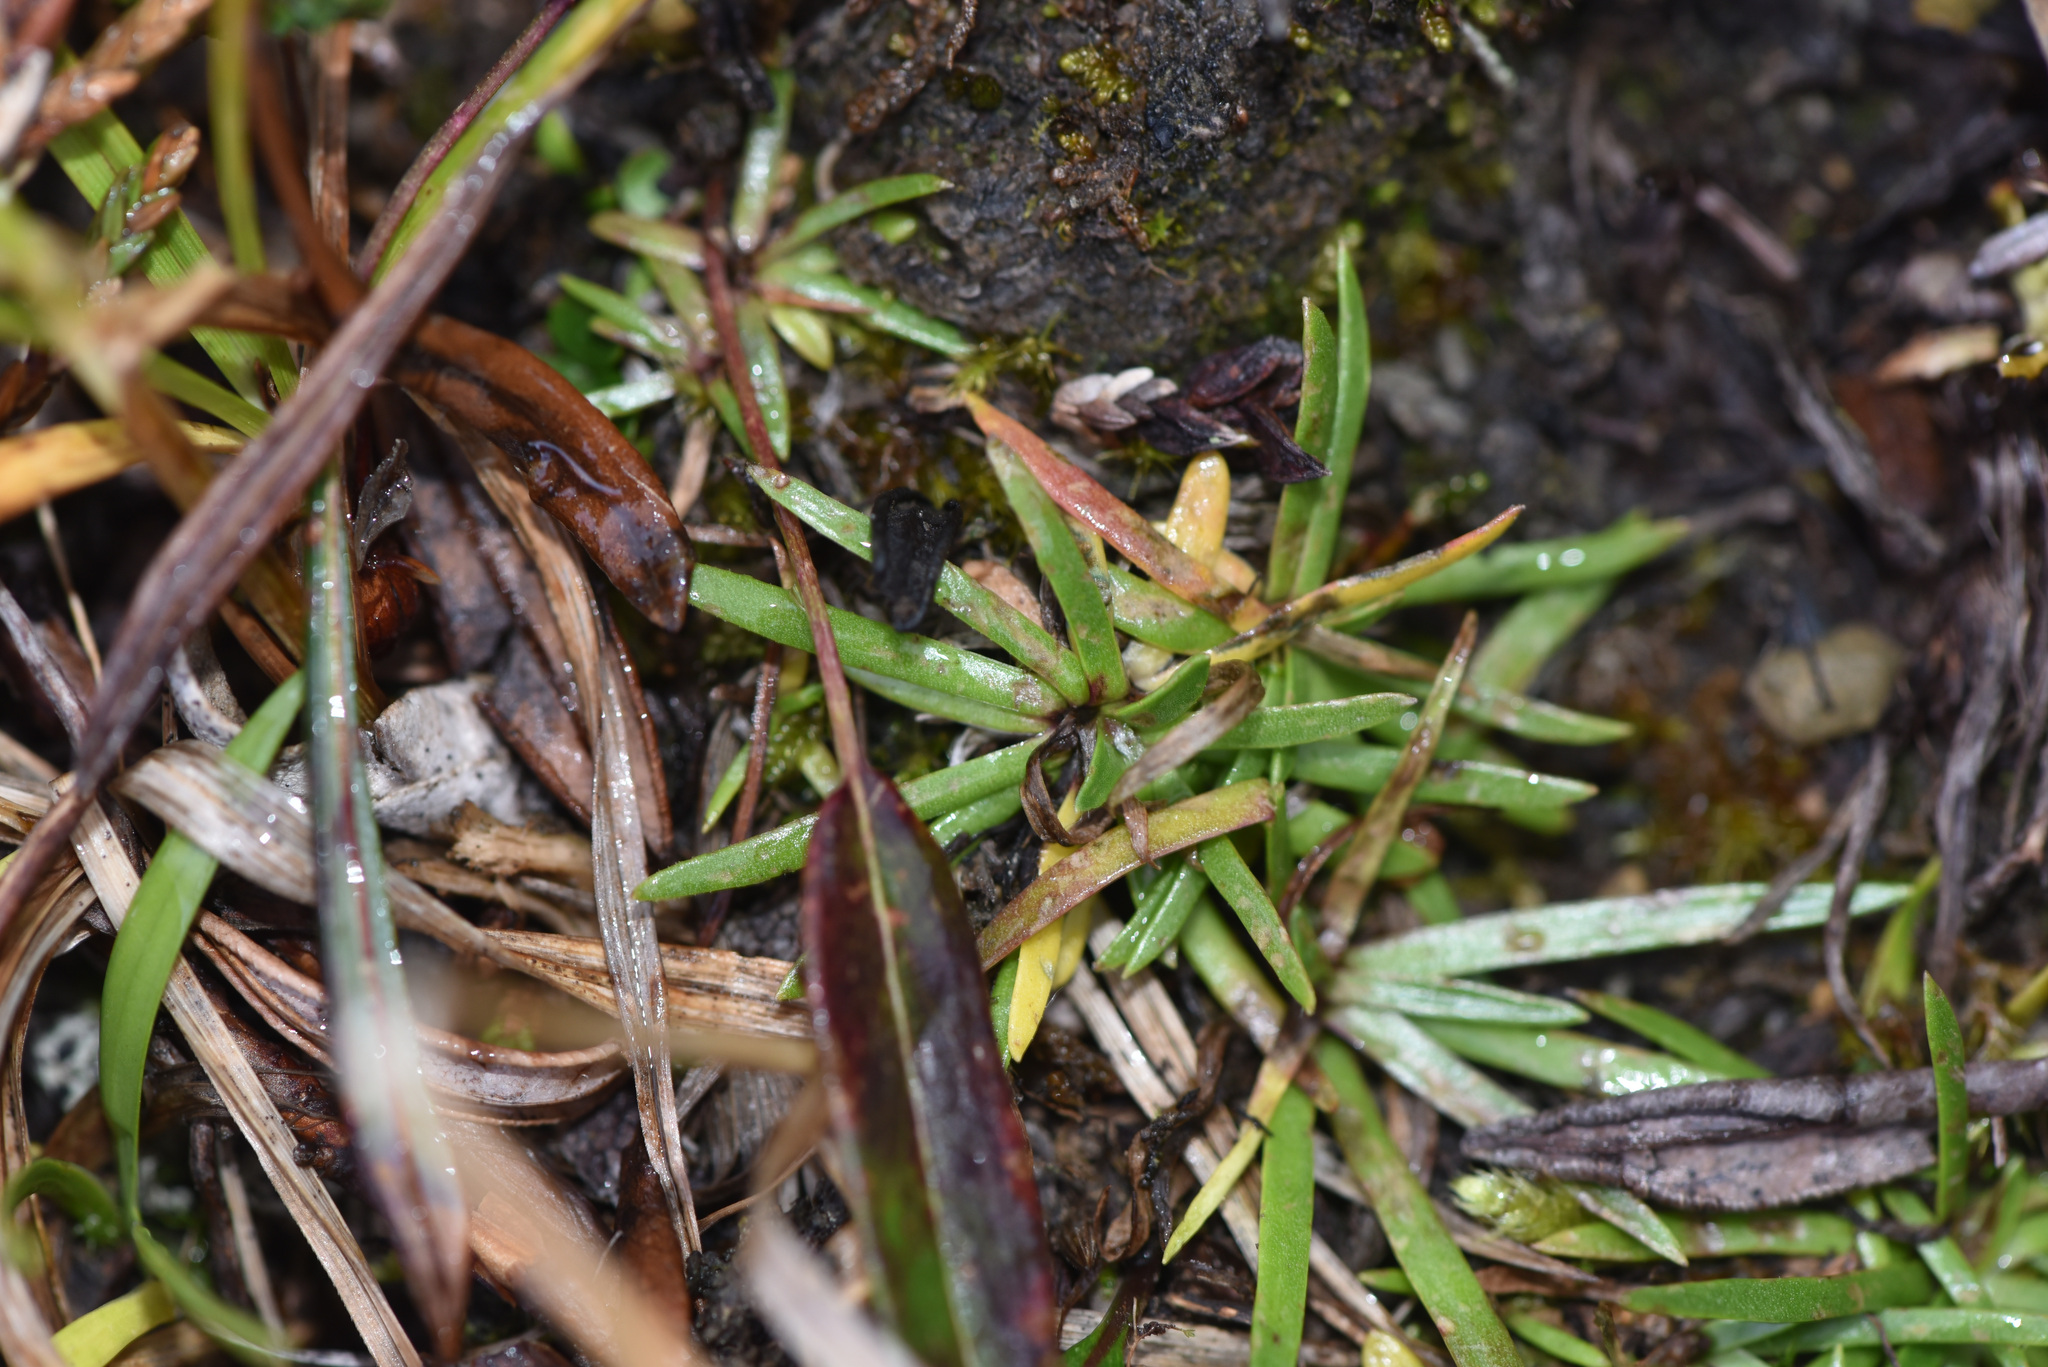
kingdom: Plantae
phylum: Tracheophyta
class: Magnoliopsida
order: Asterales
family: Asteraceae
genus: Arctanthemum
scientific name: Arctanthemum integrifolium
